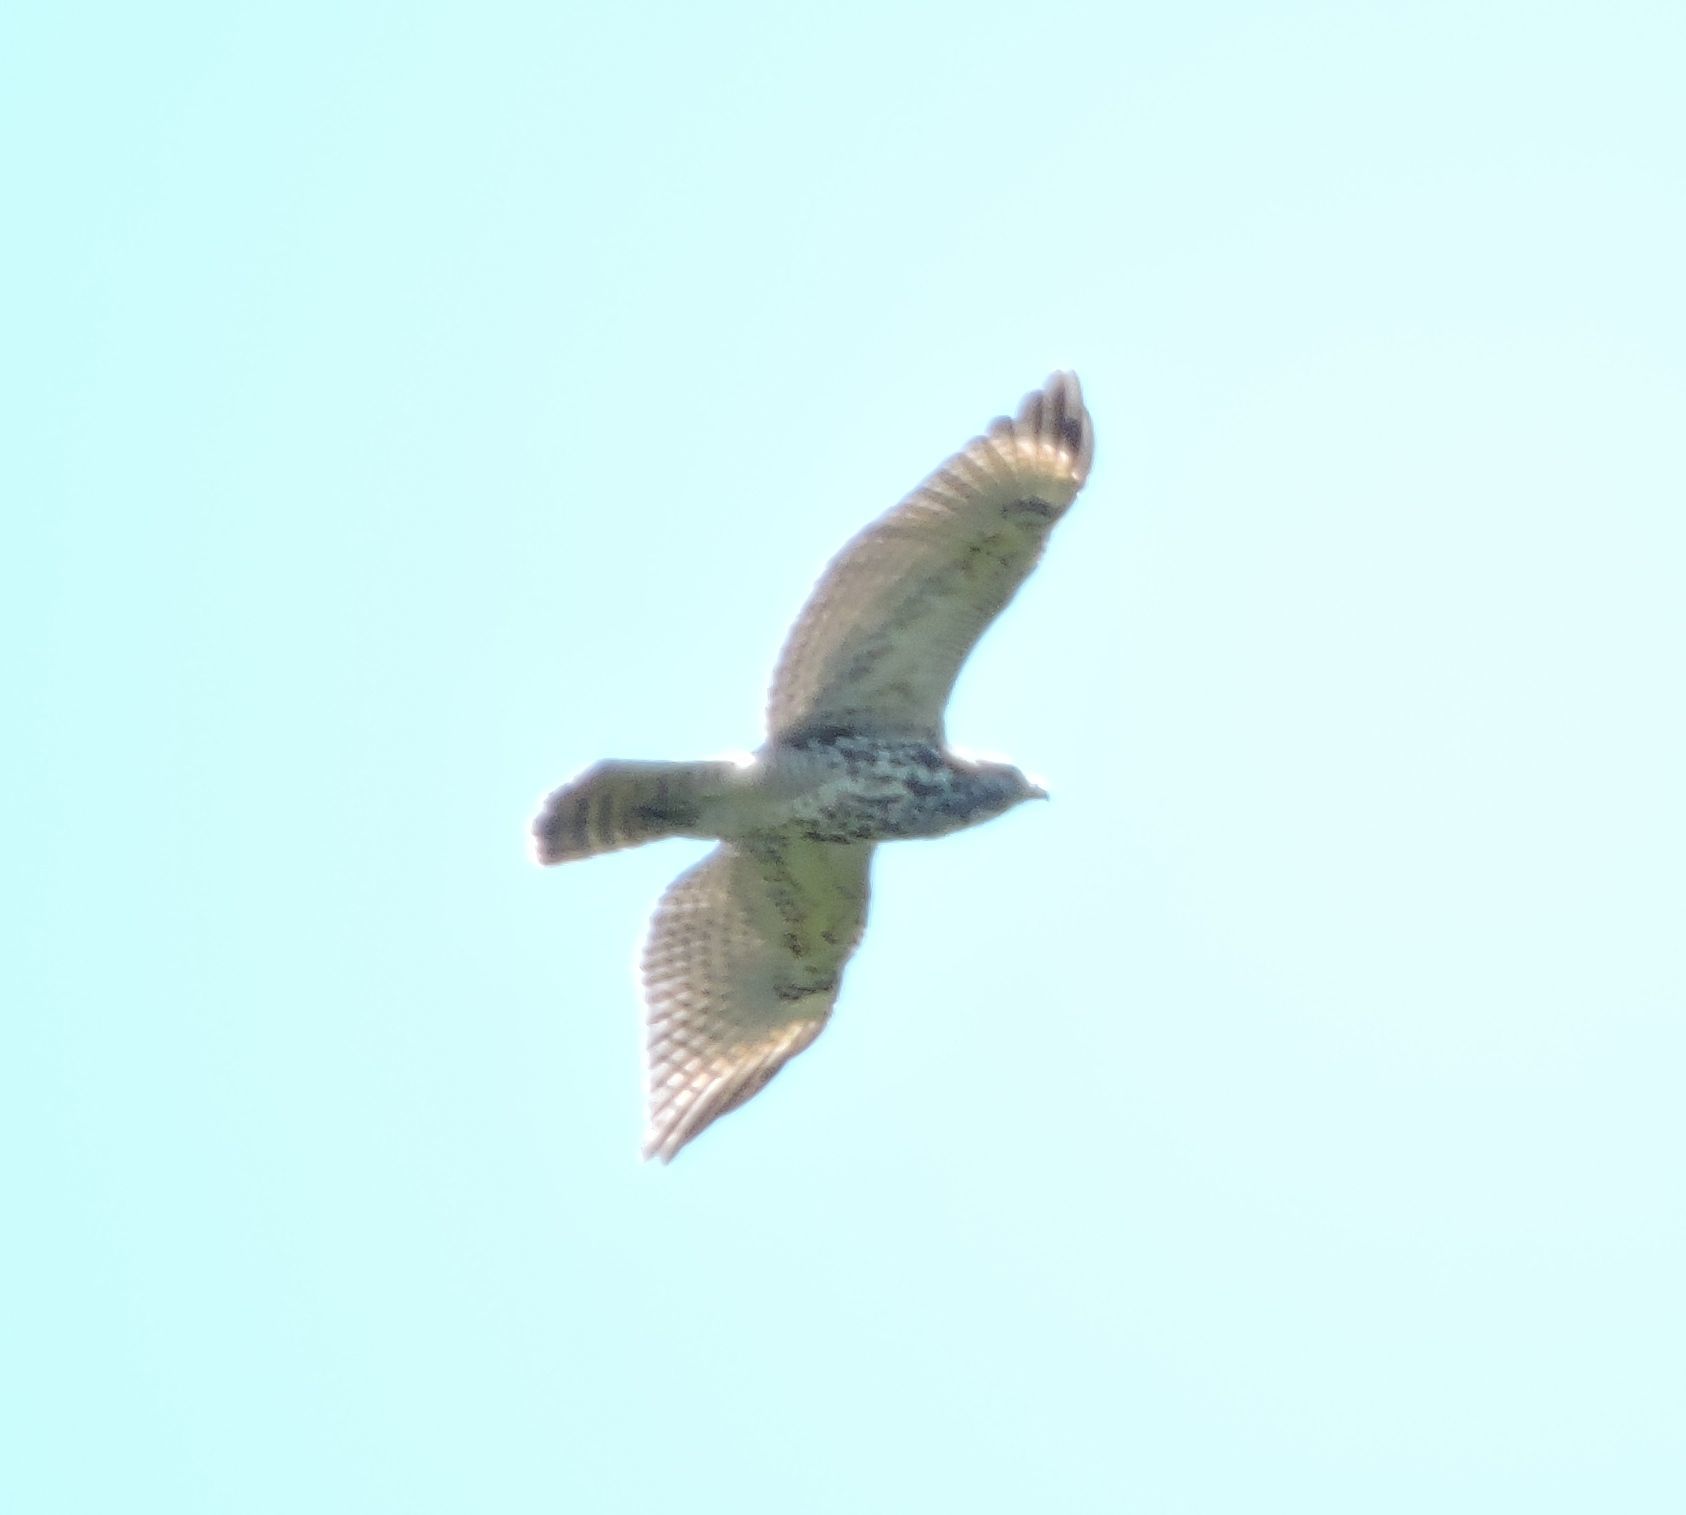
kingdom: Animalia
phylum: Chordata
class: Aves
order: Accipitriformes
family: Accipitridae
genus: Buteo
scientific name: Buteo lineatus
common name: Red-shouldered hawk
